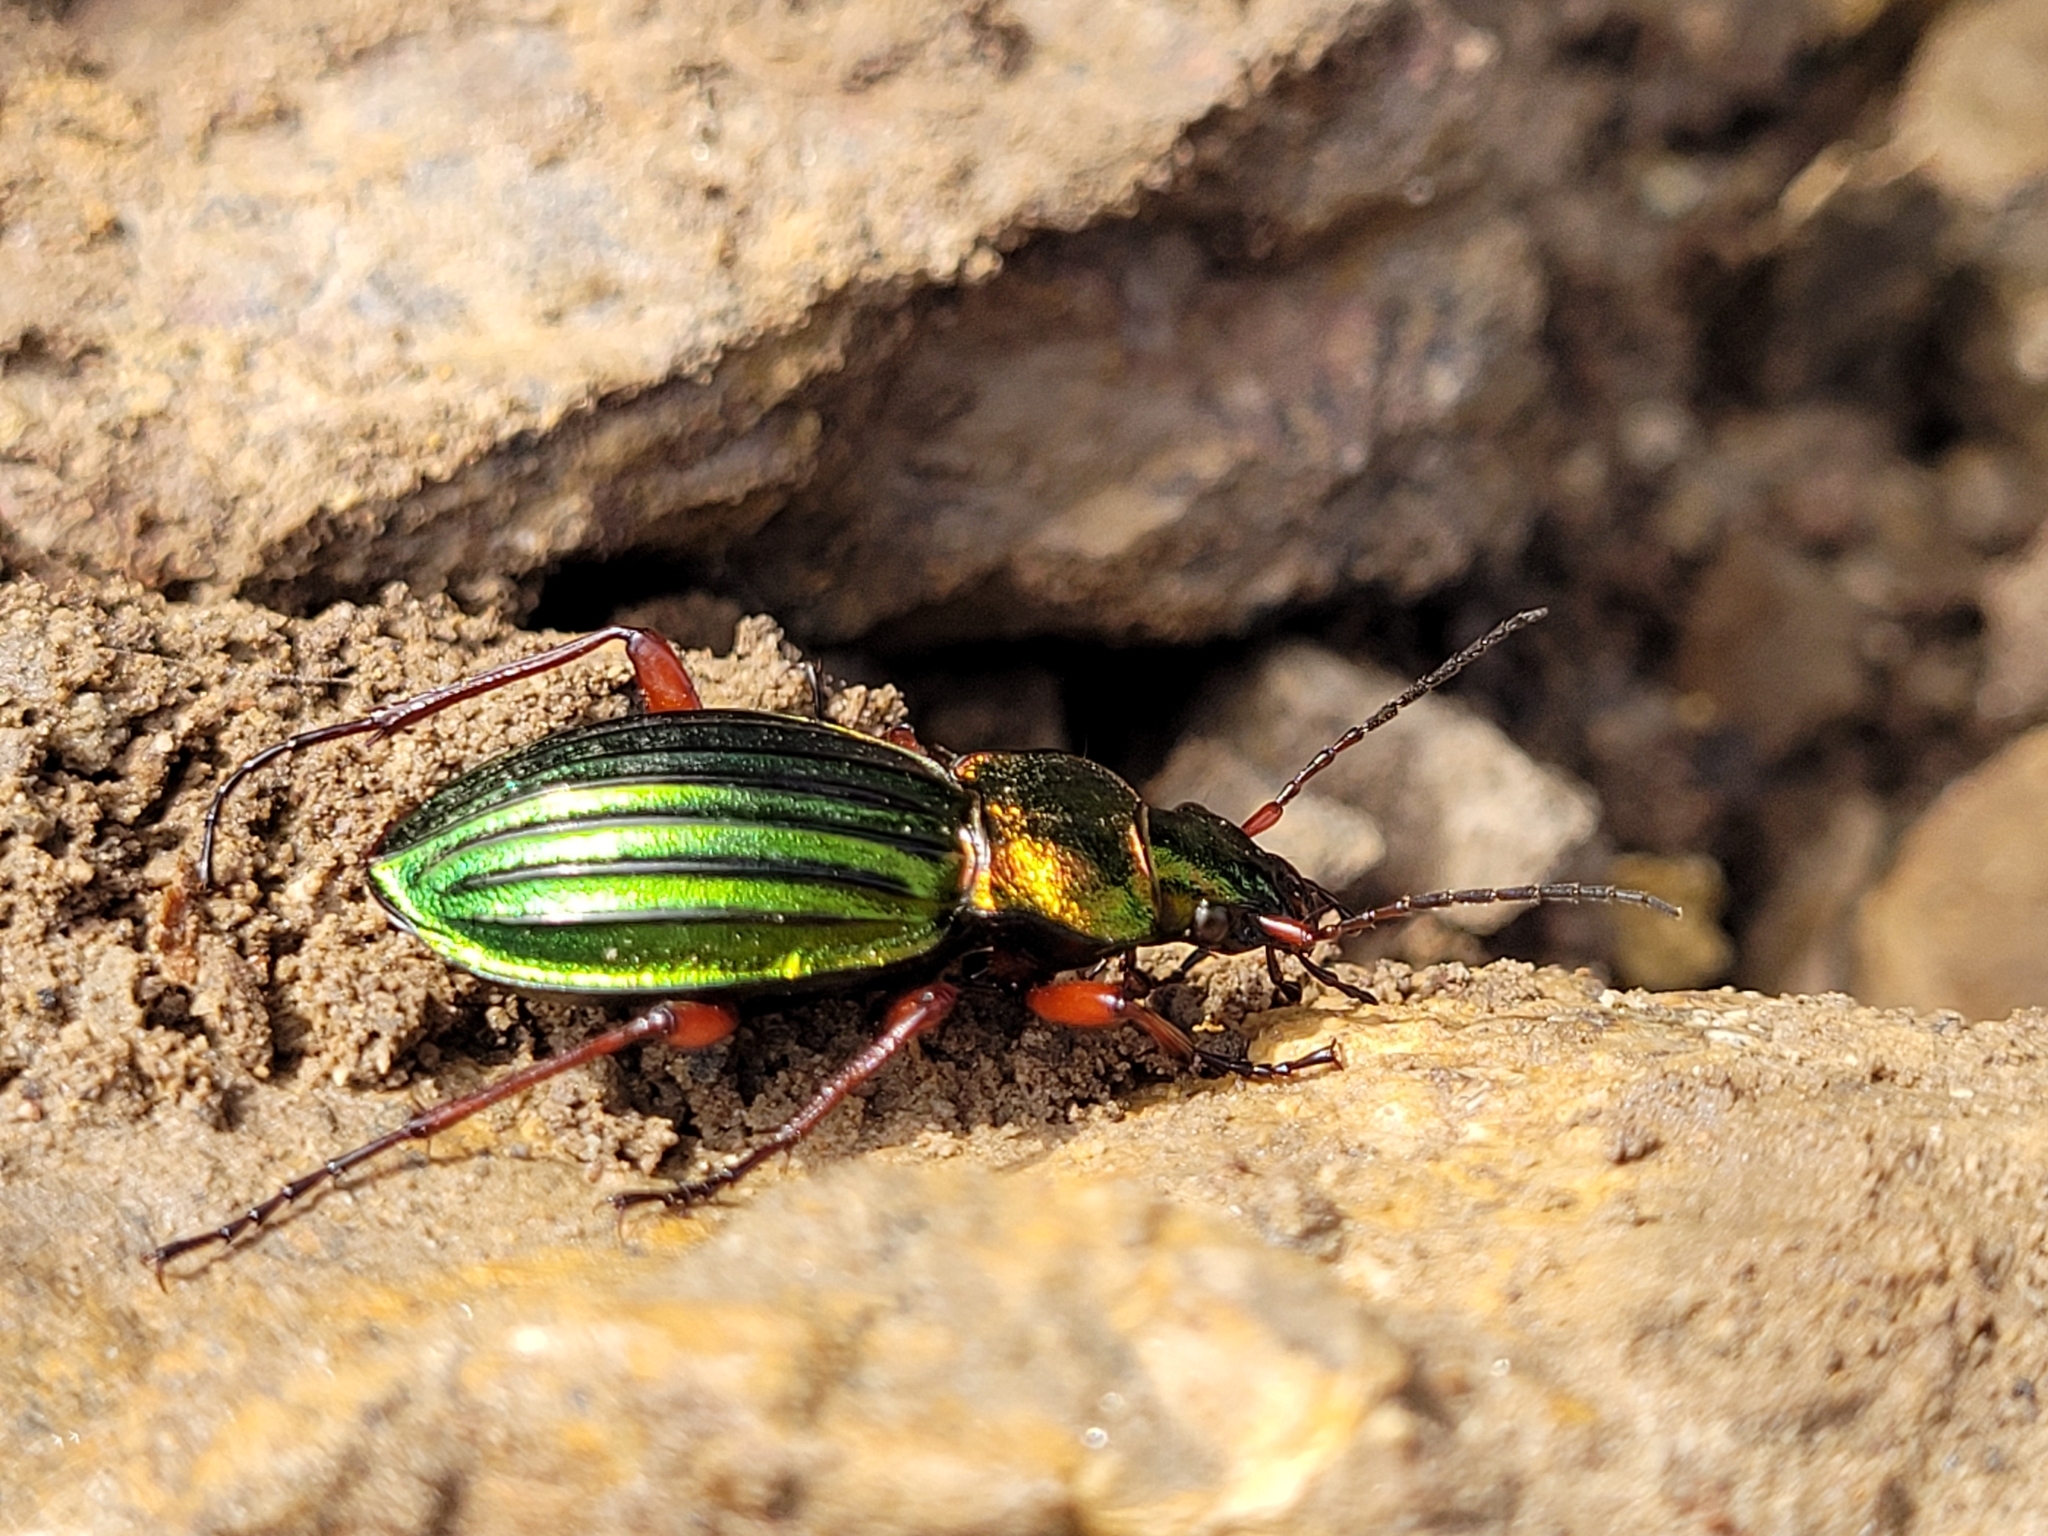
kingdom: Animalia
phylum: Arthropoda
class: Insecta
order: Coleoptera
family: Carabidae
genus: Carabus
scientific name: Carabus auronitens
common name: Carabus auronitens
